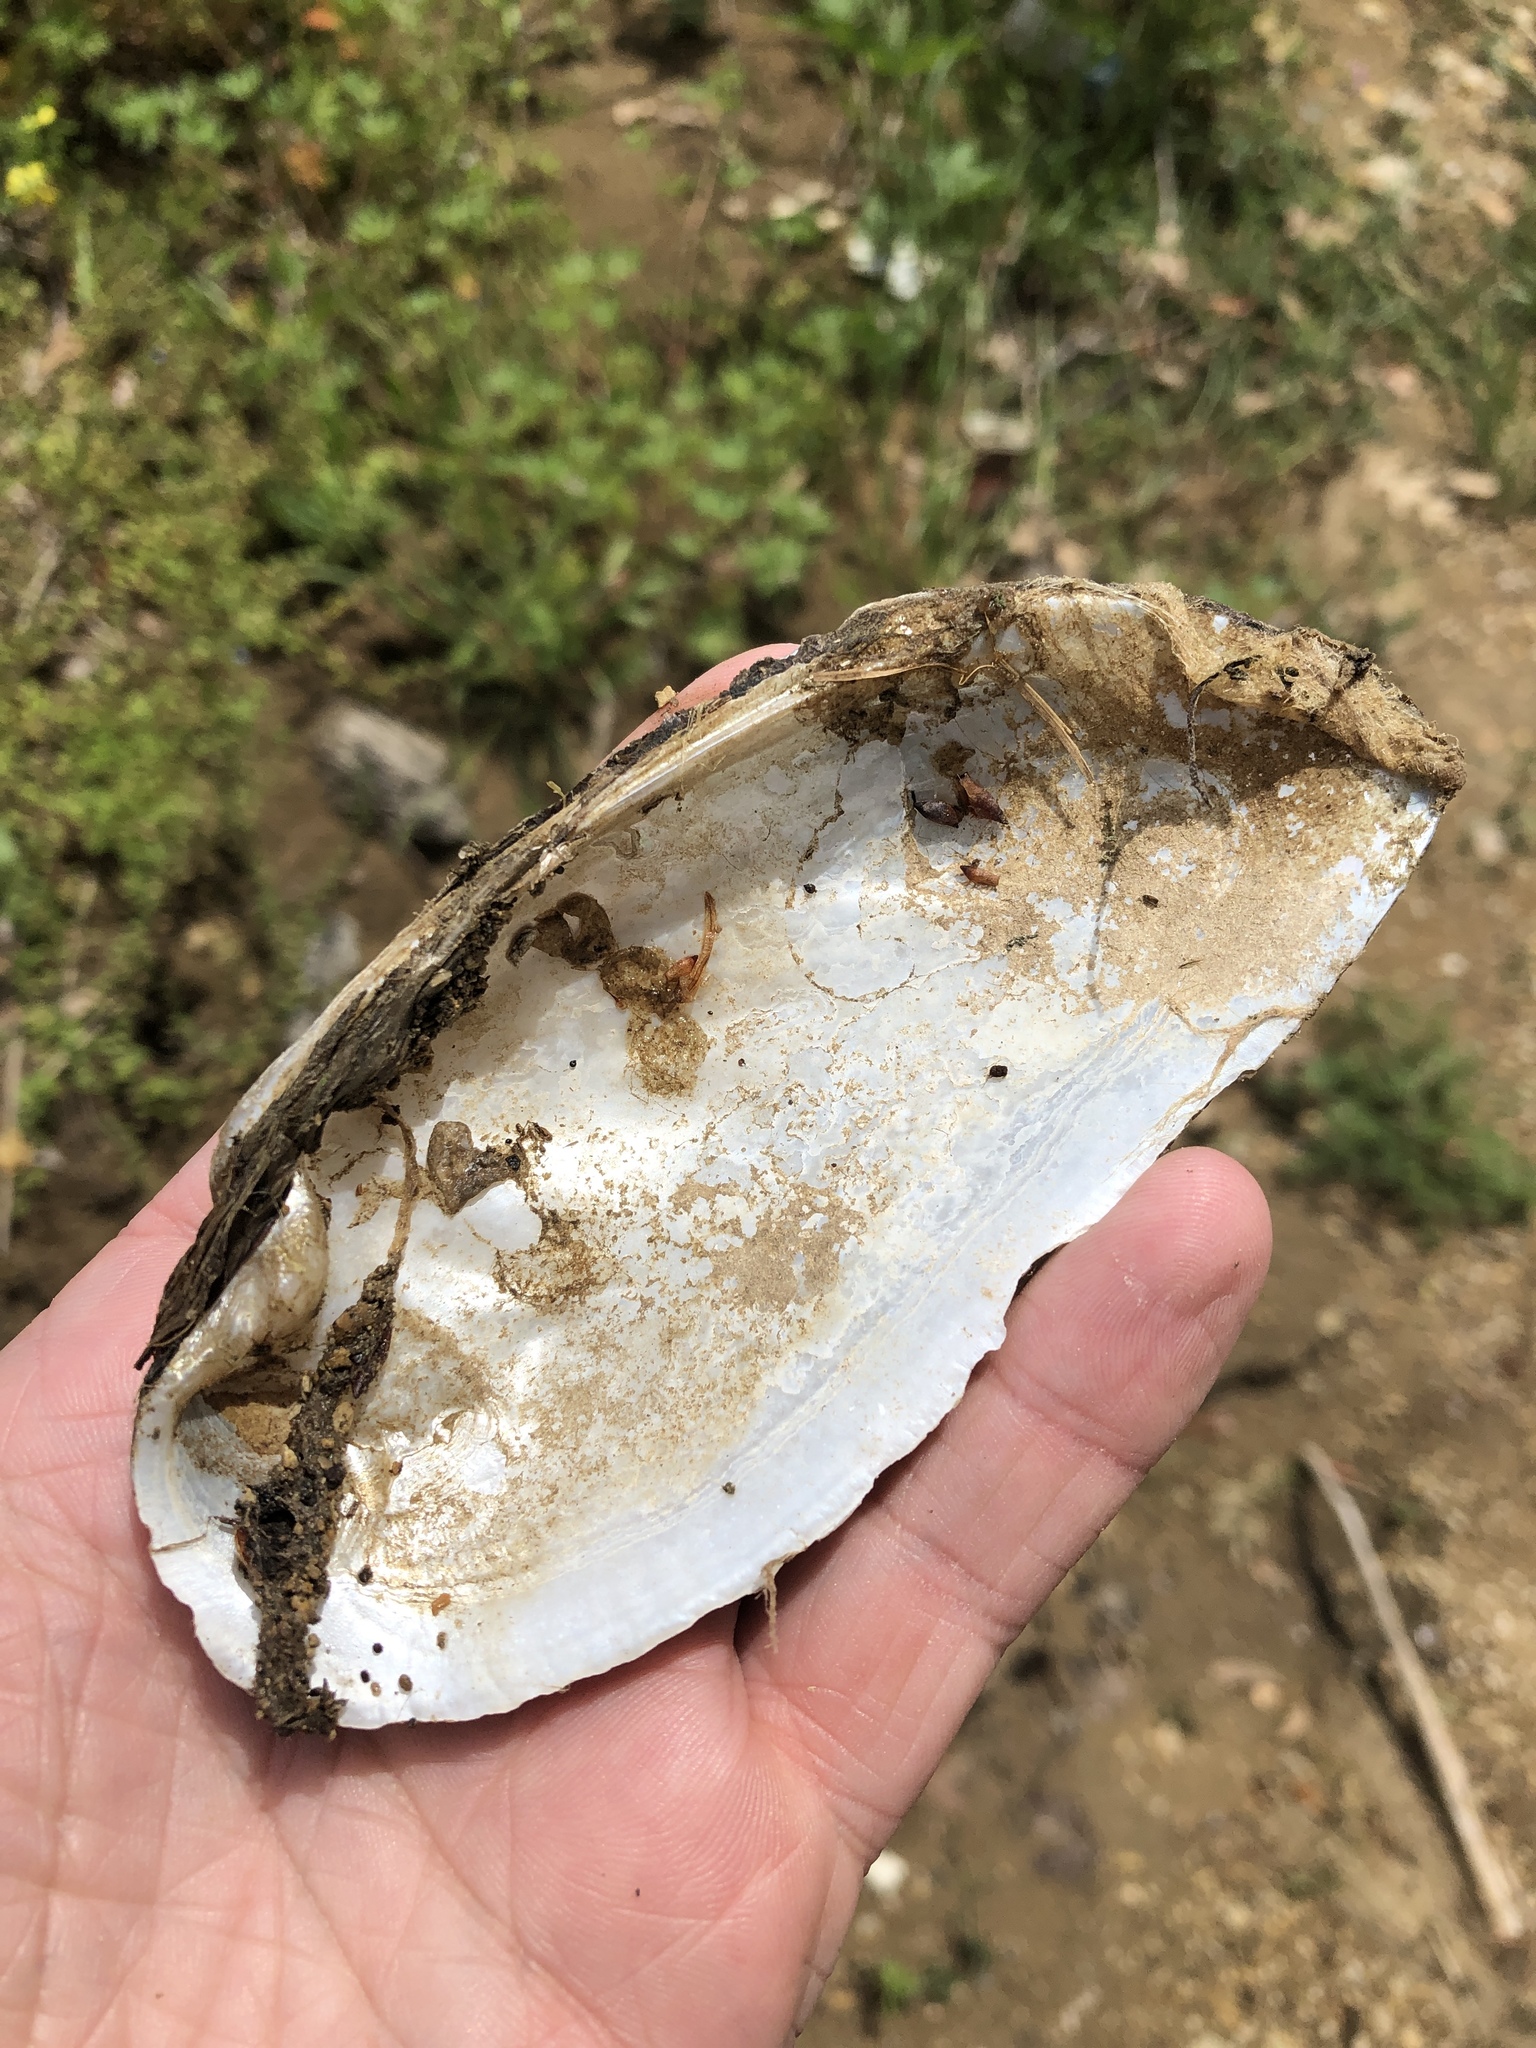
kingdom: Animalia
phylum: Mollusca
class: Bivalvia
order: Unionida
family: Unionidae
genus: Uniomerus
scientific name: Uniomerus declivis
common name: Tapered pondhorn
